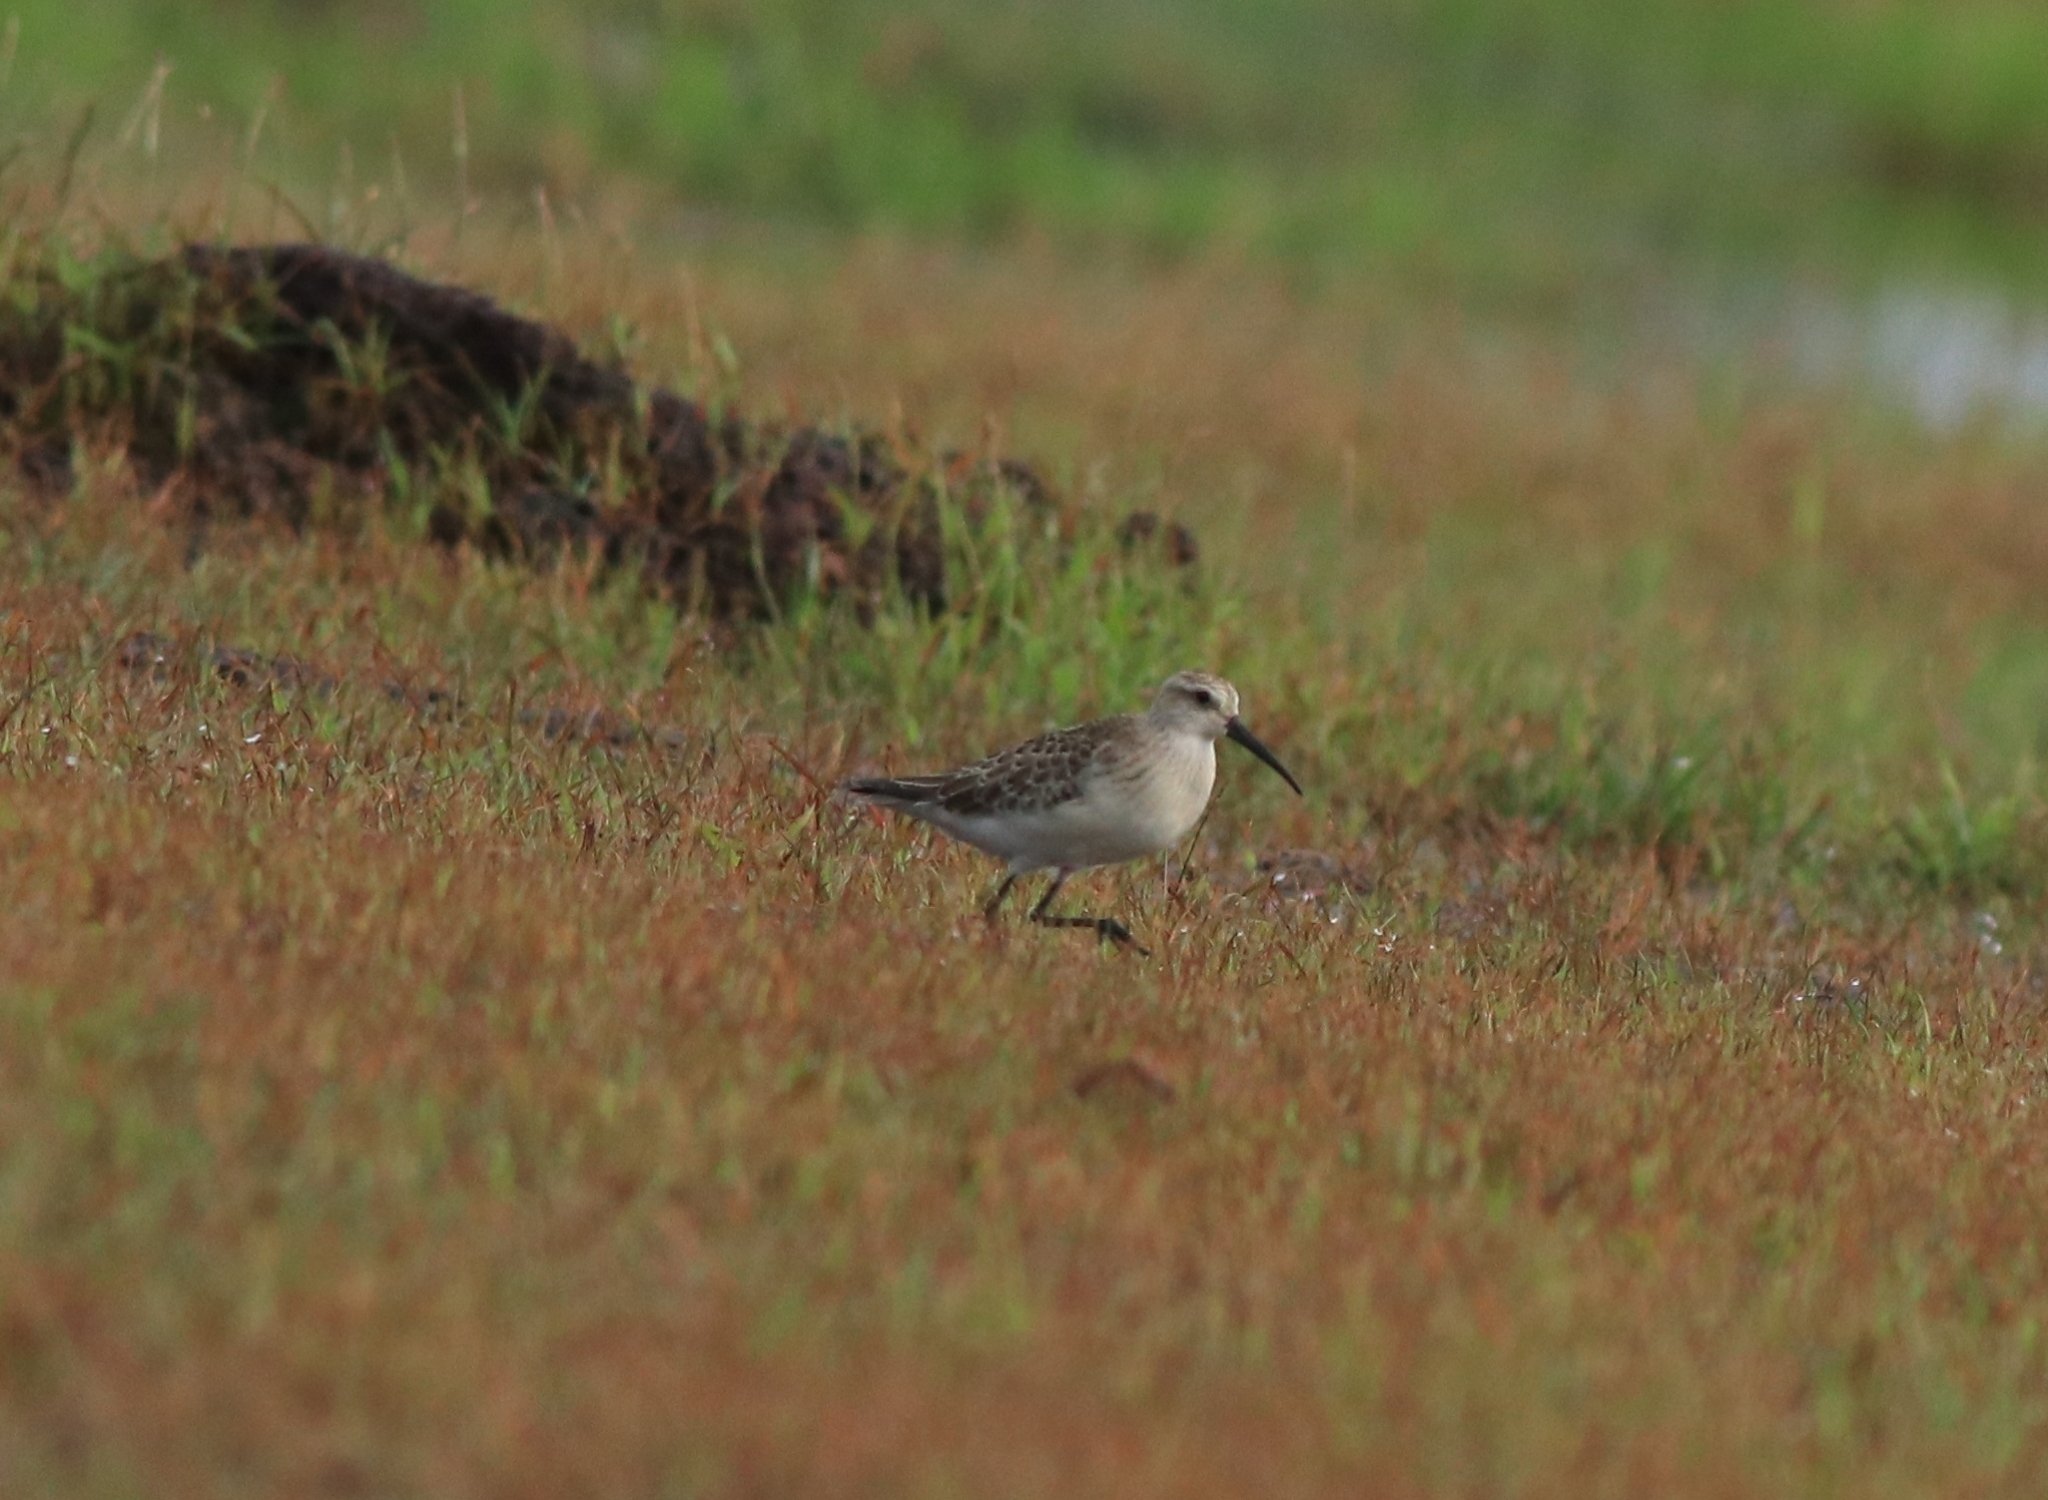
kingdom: Animalia
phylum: Chordata
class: Aves
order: Charadriiformes
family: Scolopacidae
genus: Calidris
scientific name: Calidris ferruginea
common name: Curlew sandpiper
